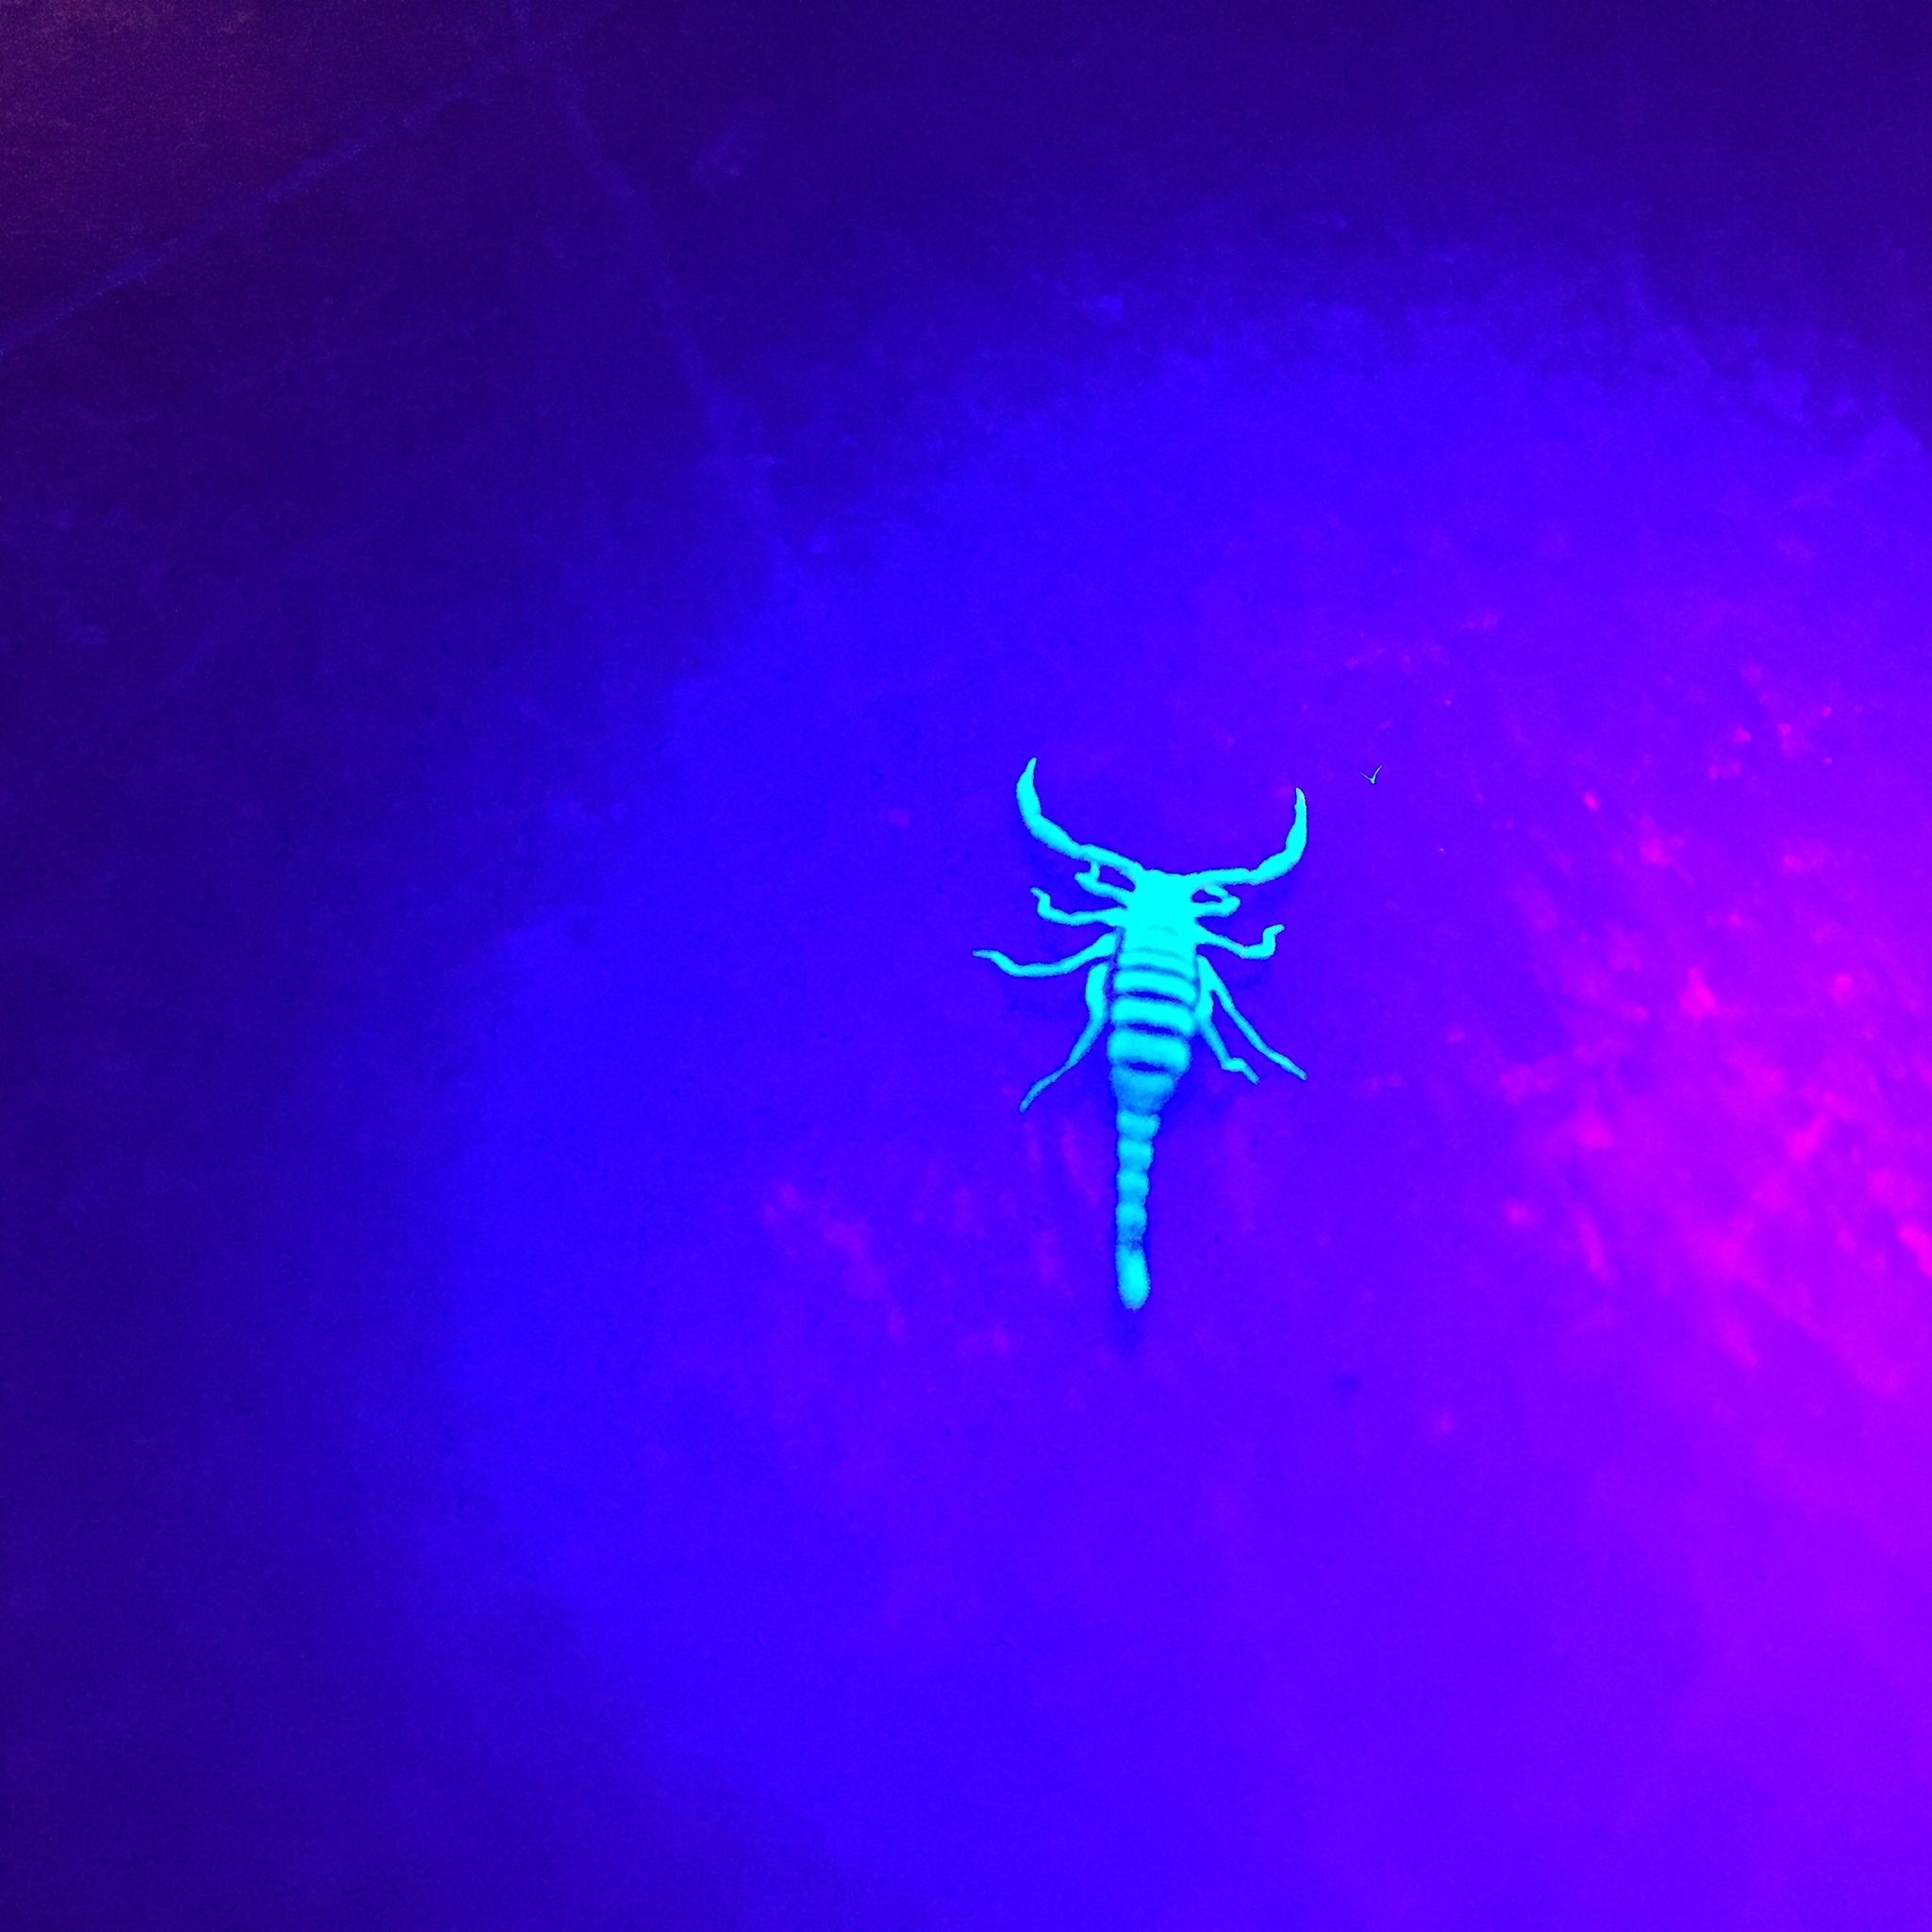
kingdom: Animalia
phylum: Arthropoda
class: Arachnida
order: Scorpiones
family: Vaejovidae
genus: Paravaejovis
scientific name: Paravaejovis spinigerus
